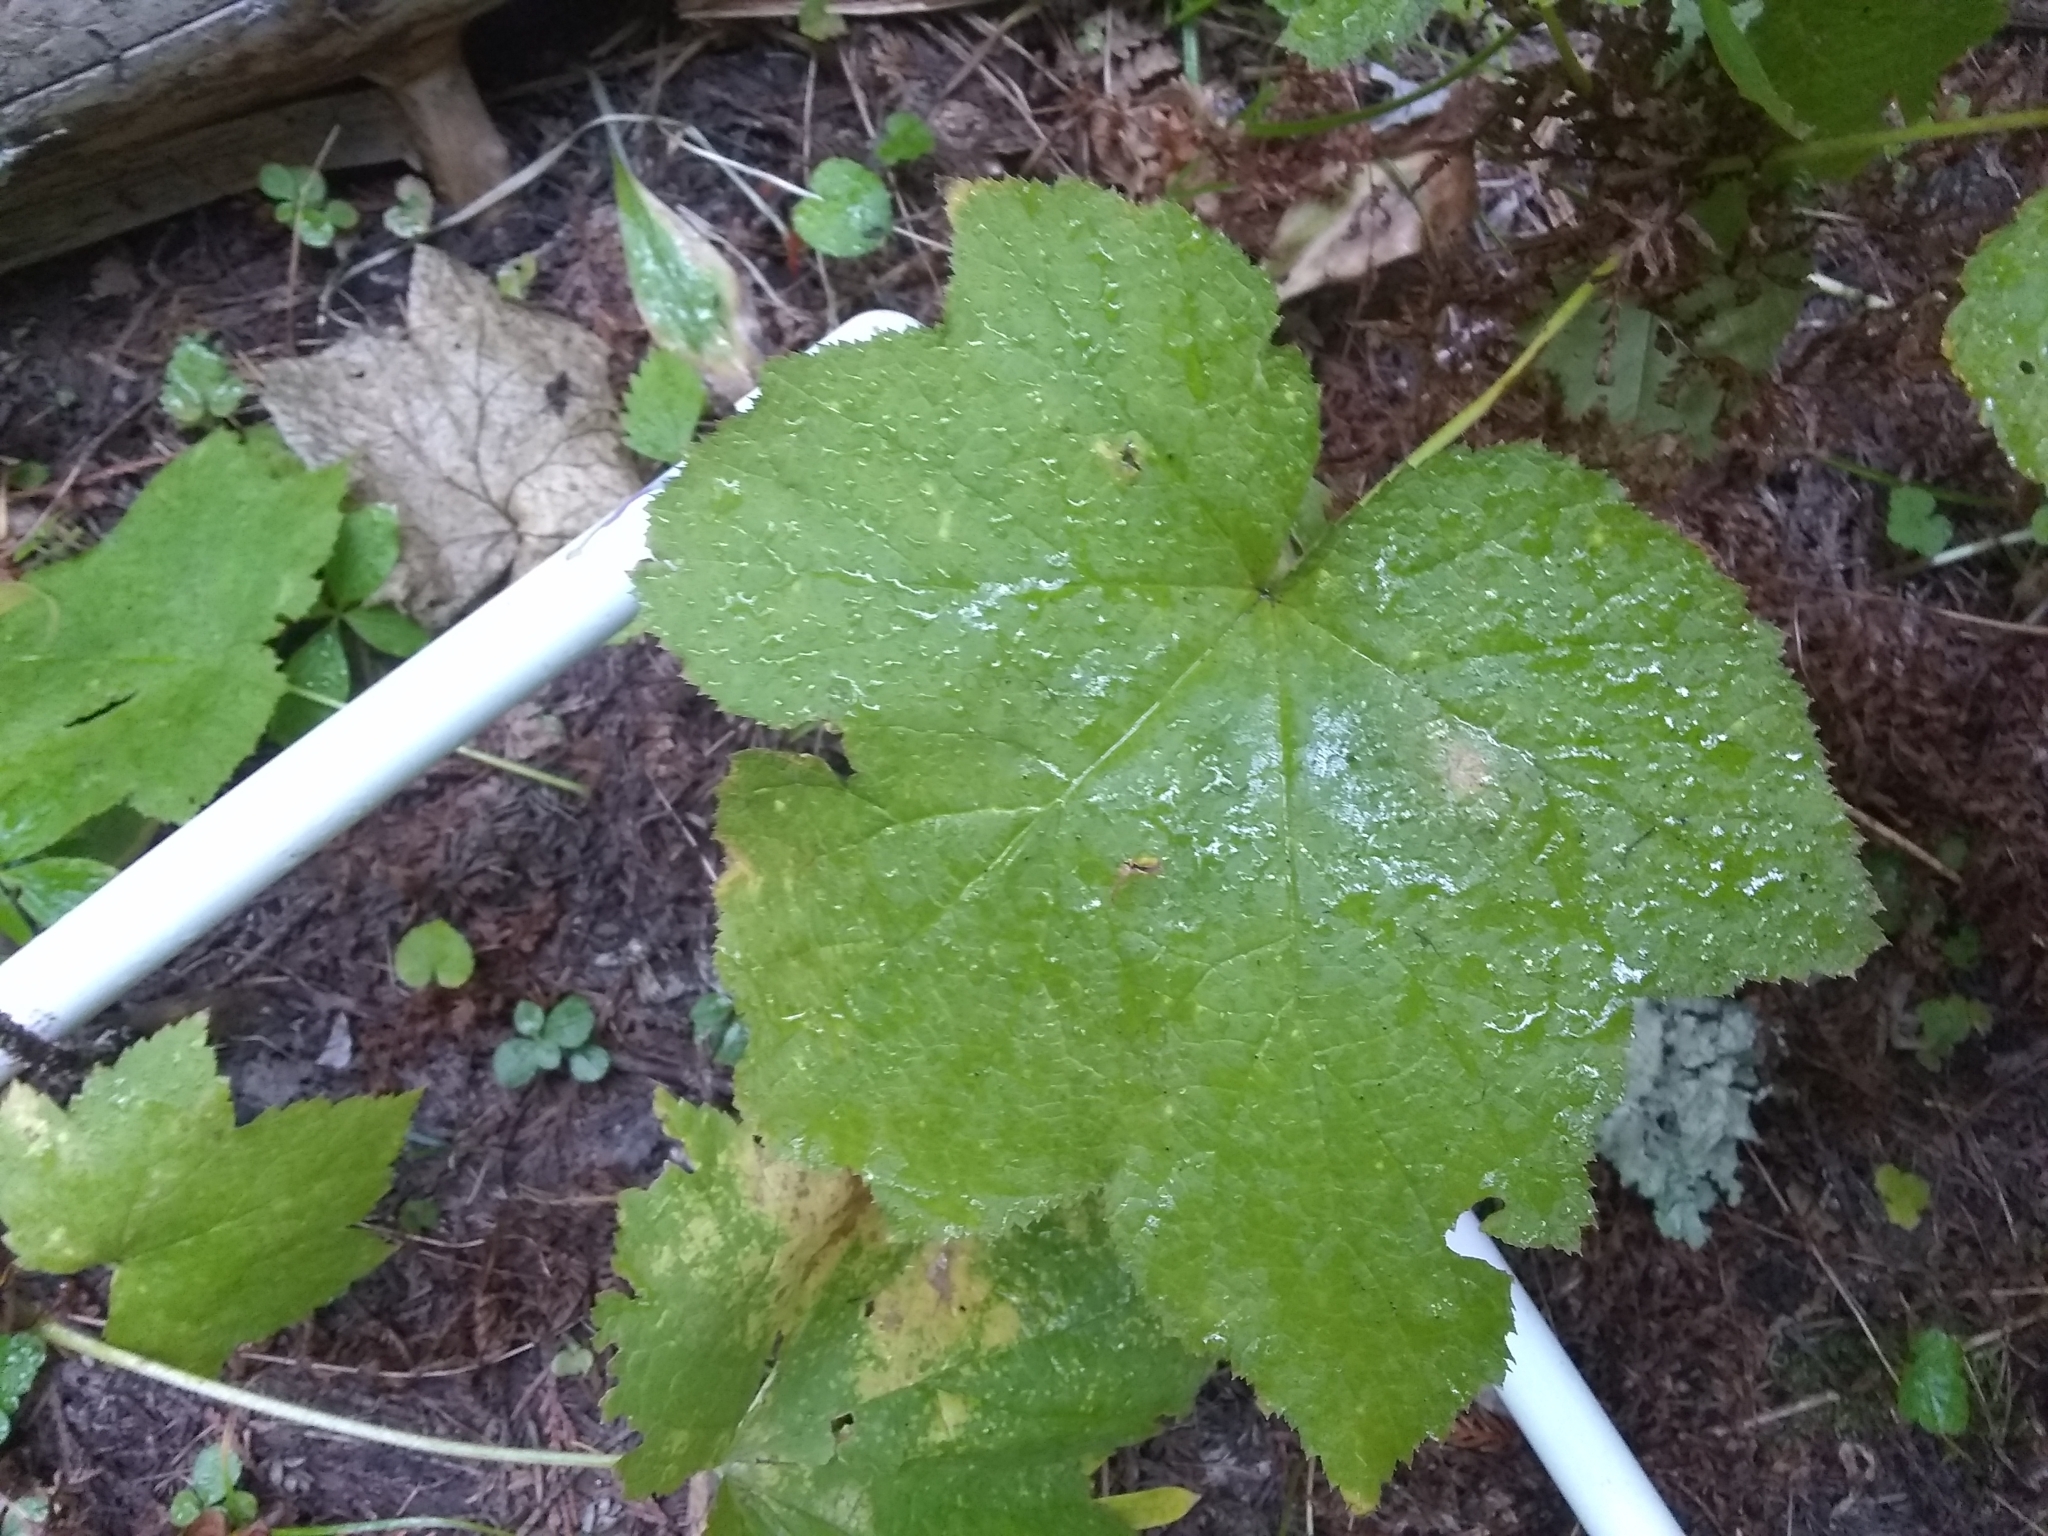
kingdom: Plantae
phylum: Tracheophyta
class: Magnoliopsida
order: Rosales
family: Rosaceae
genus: Rubus
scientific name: Rubus parviflorus
